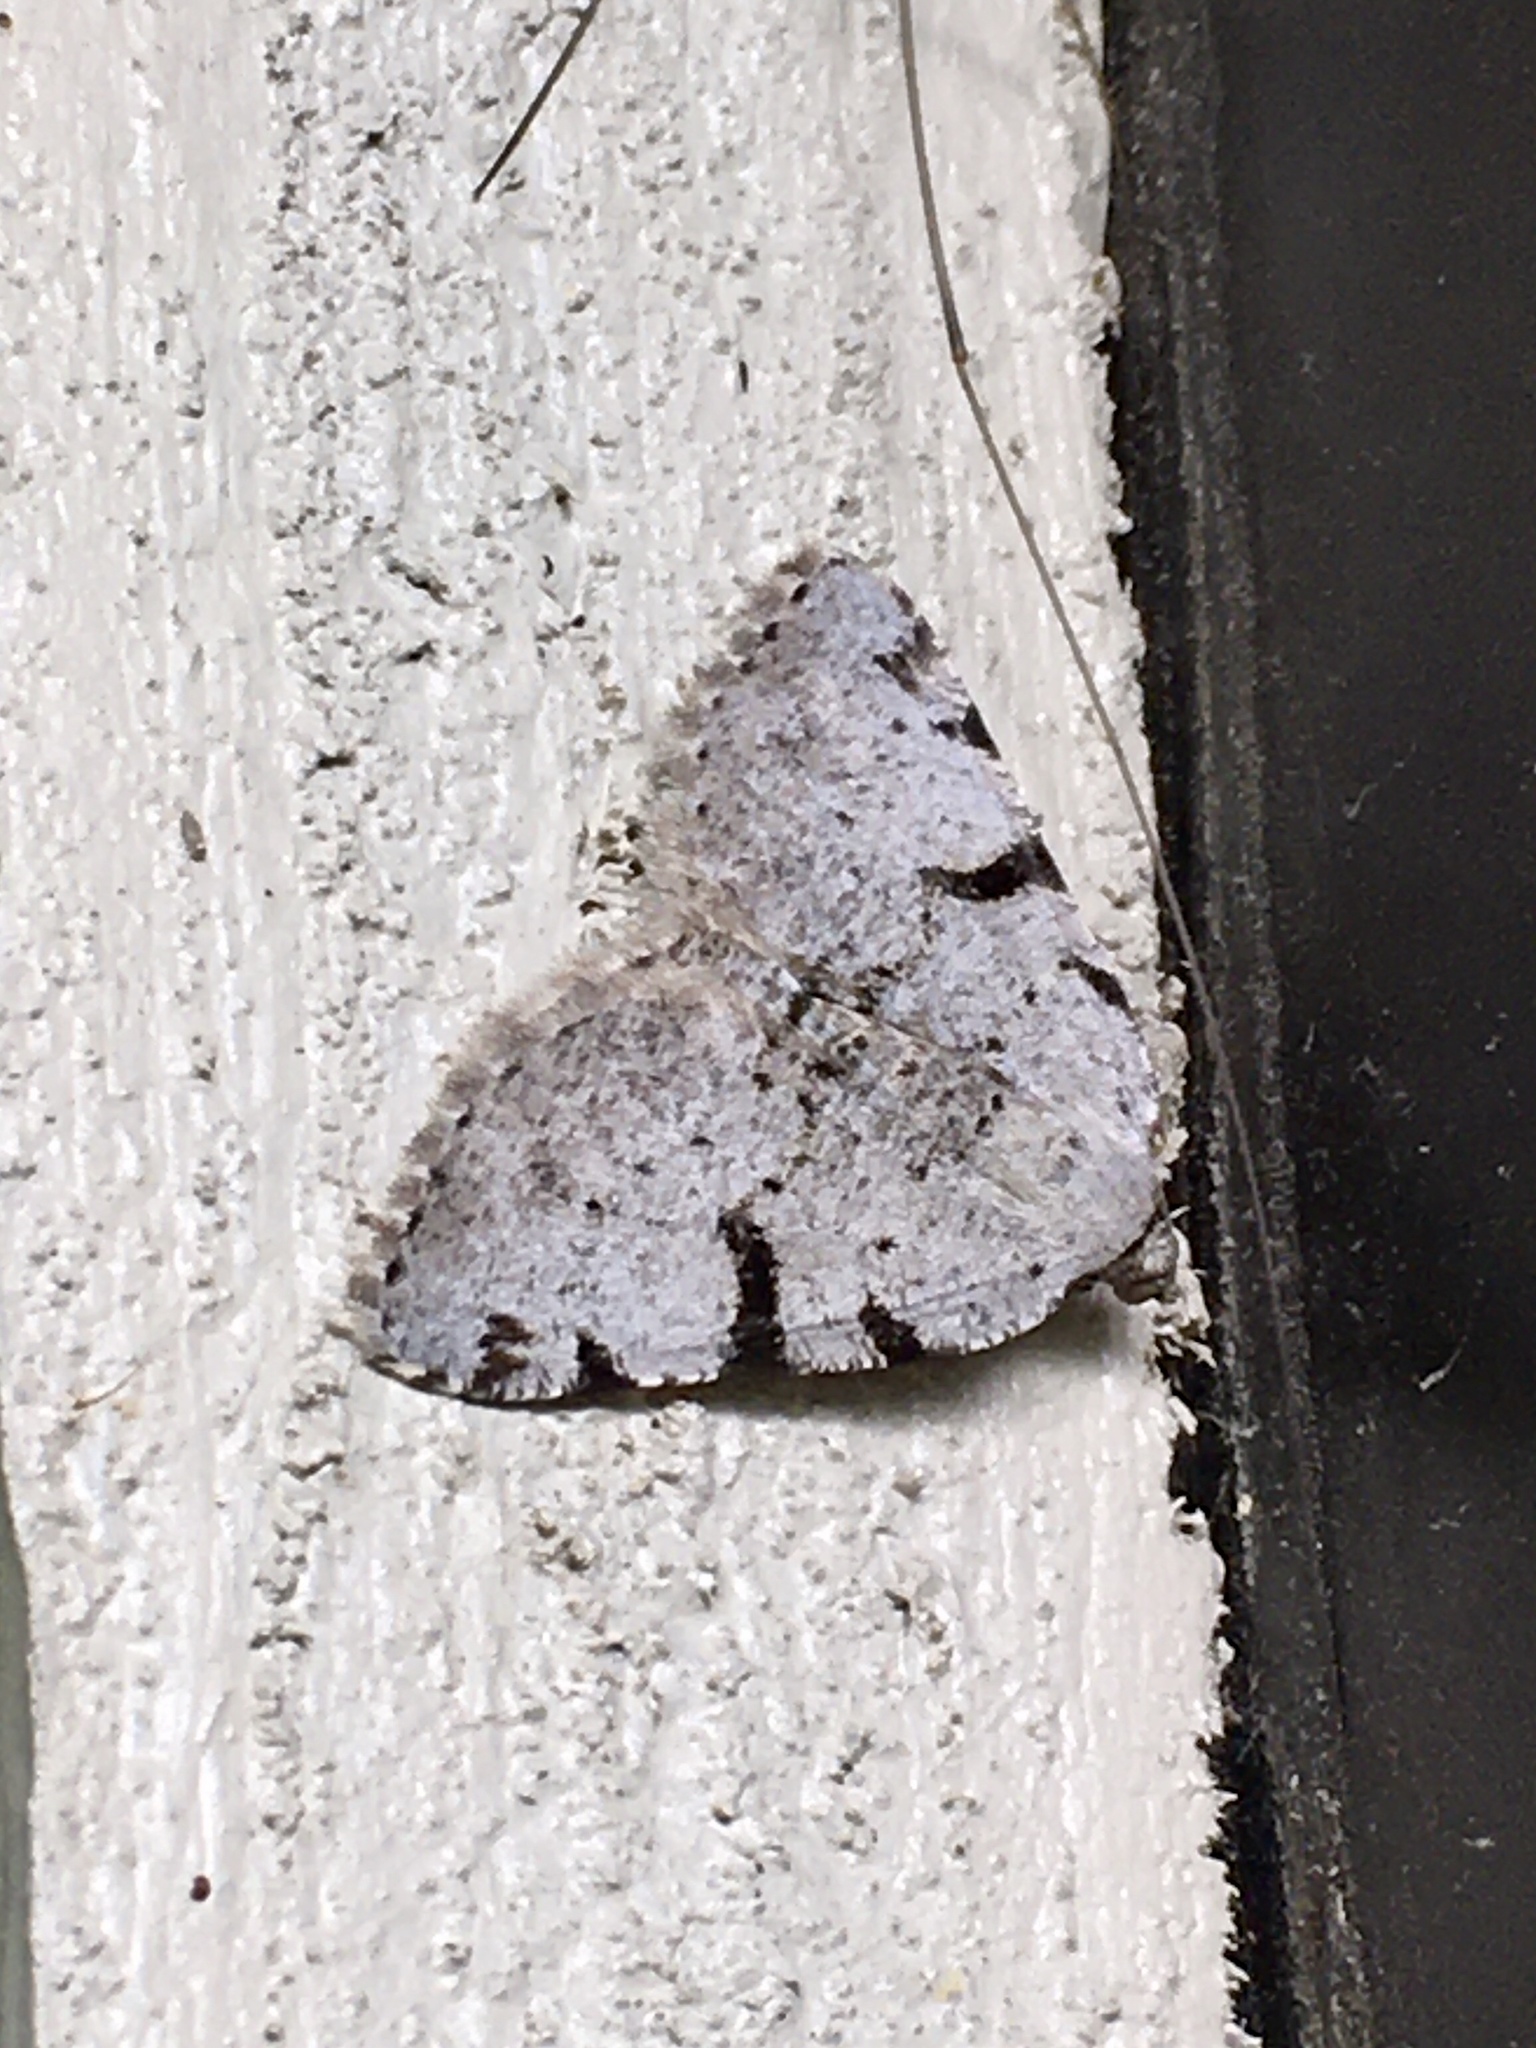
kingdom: Animalia
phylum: Arthropoda
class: Insecta
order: Lepidoptera
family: Geometridae
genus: Macaria
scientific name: Macaria subcessaria
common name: Barred angle
